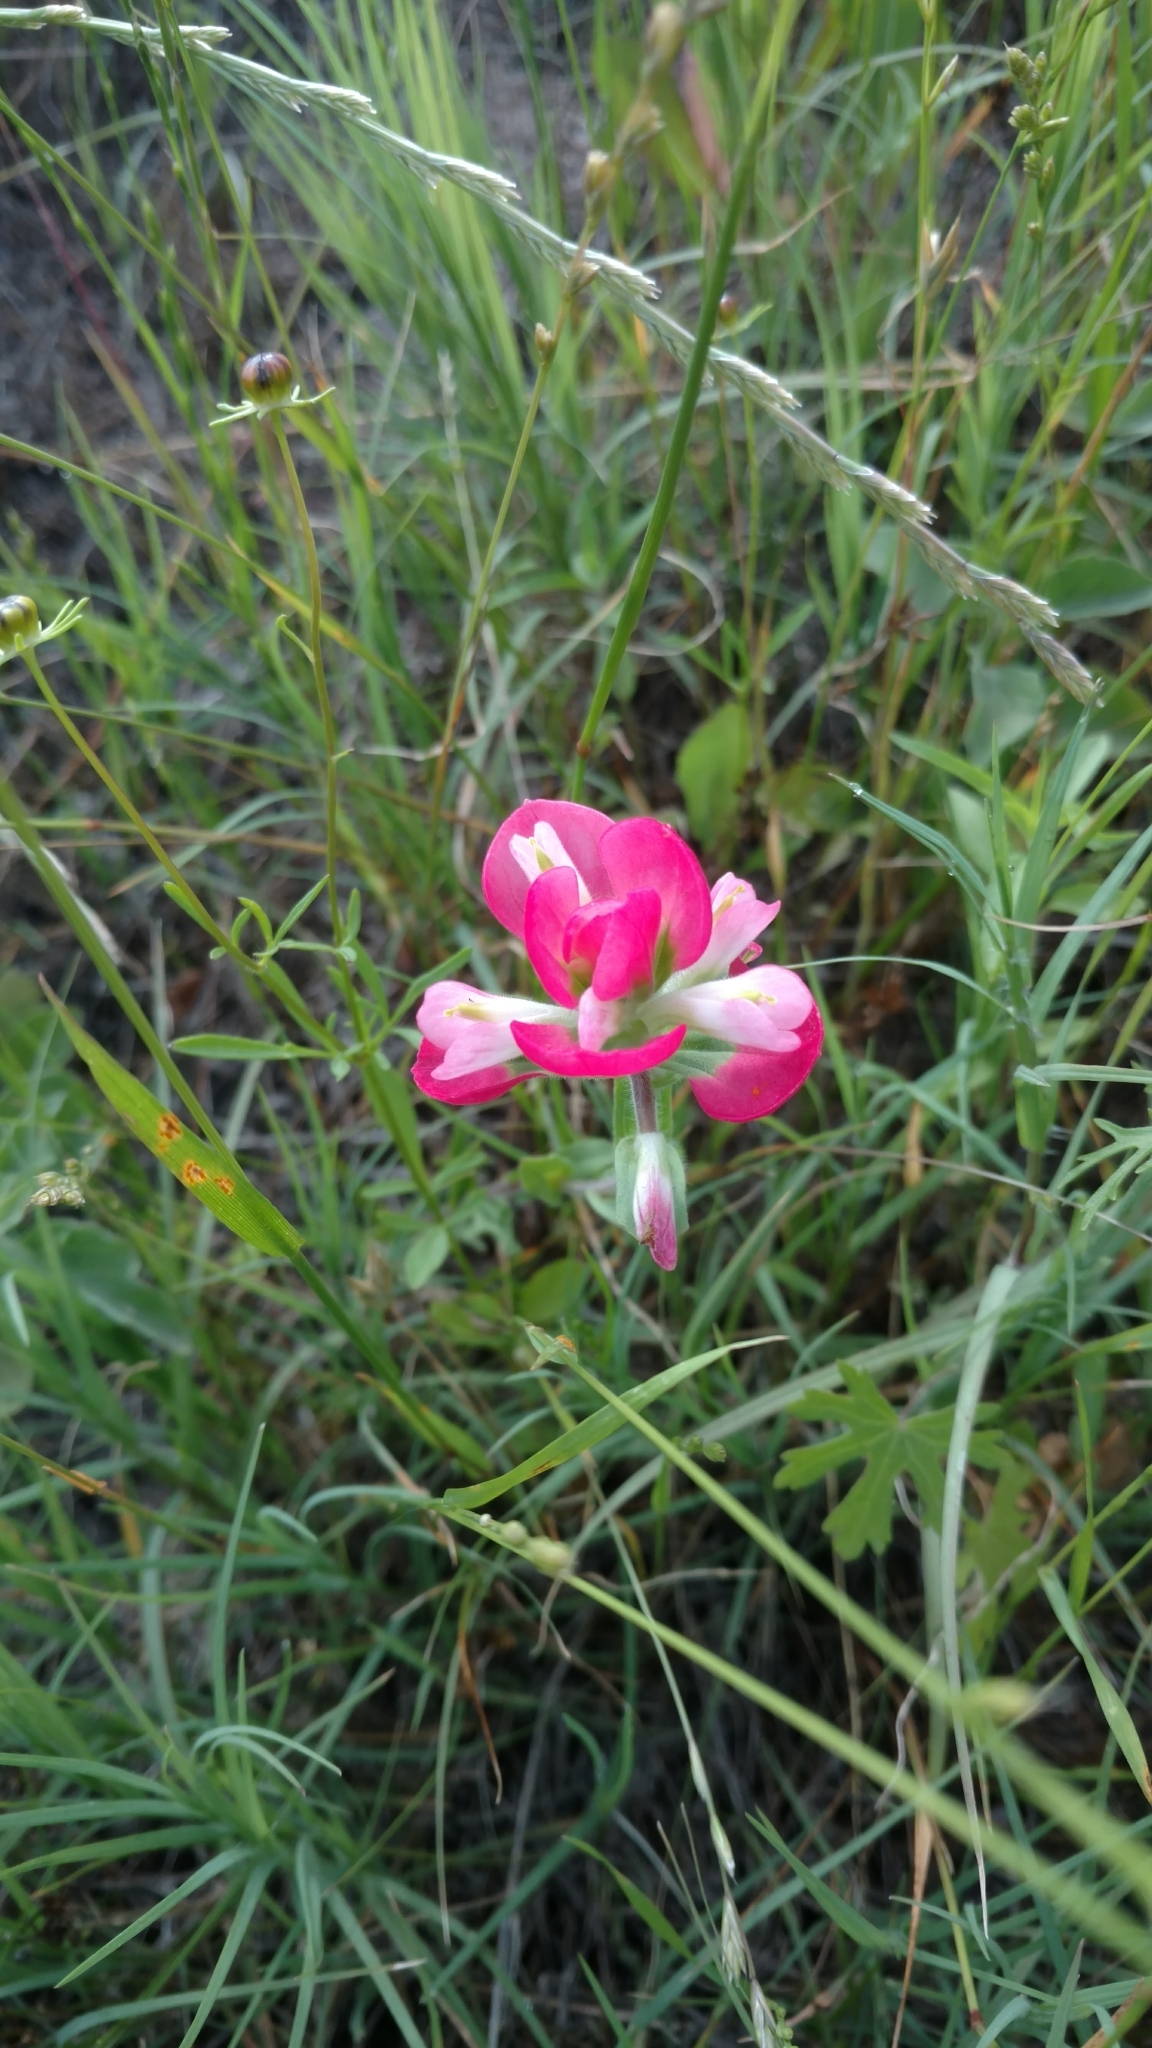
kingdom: Plantae
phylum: Tracheophyta
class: Magnoliopsida
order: Lamiales
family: Orobanchaceae
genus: Castilleja
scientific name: Castilleja indivisa
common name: Texas paintbrush
